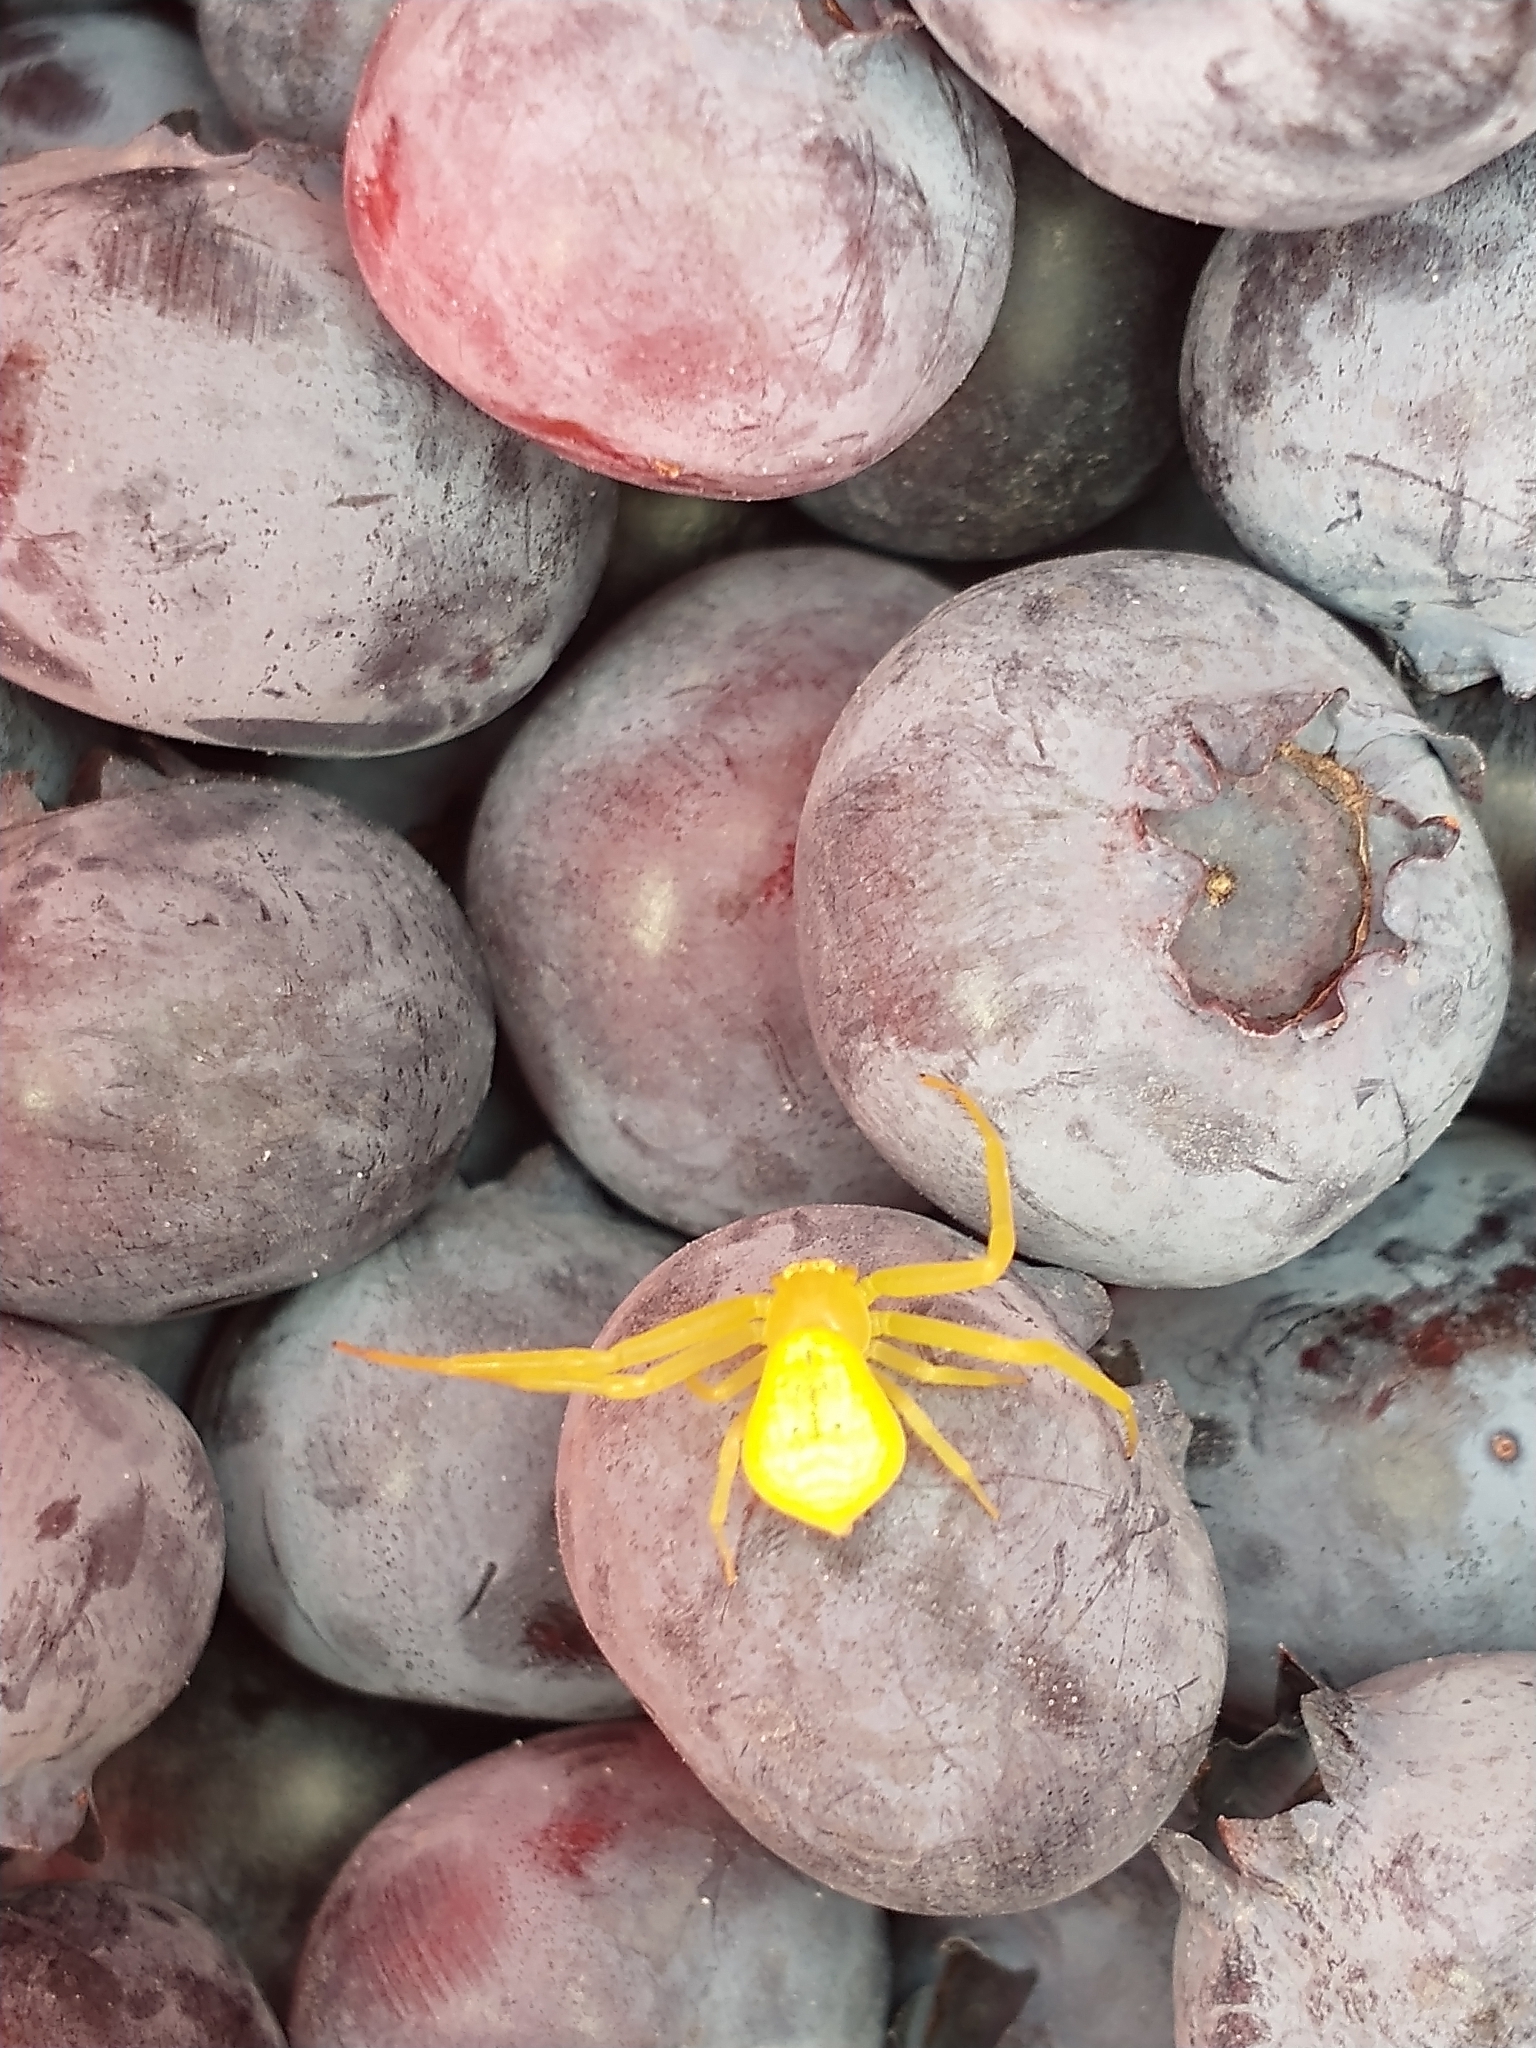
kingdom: Animalia
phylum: Arthropoda
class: Arachnida
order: Araneae
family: Thomisidae
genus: Misumessus
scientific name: Misumessus oblongus
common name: American green crab spider
